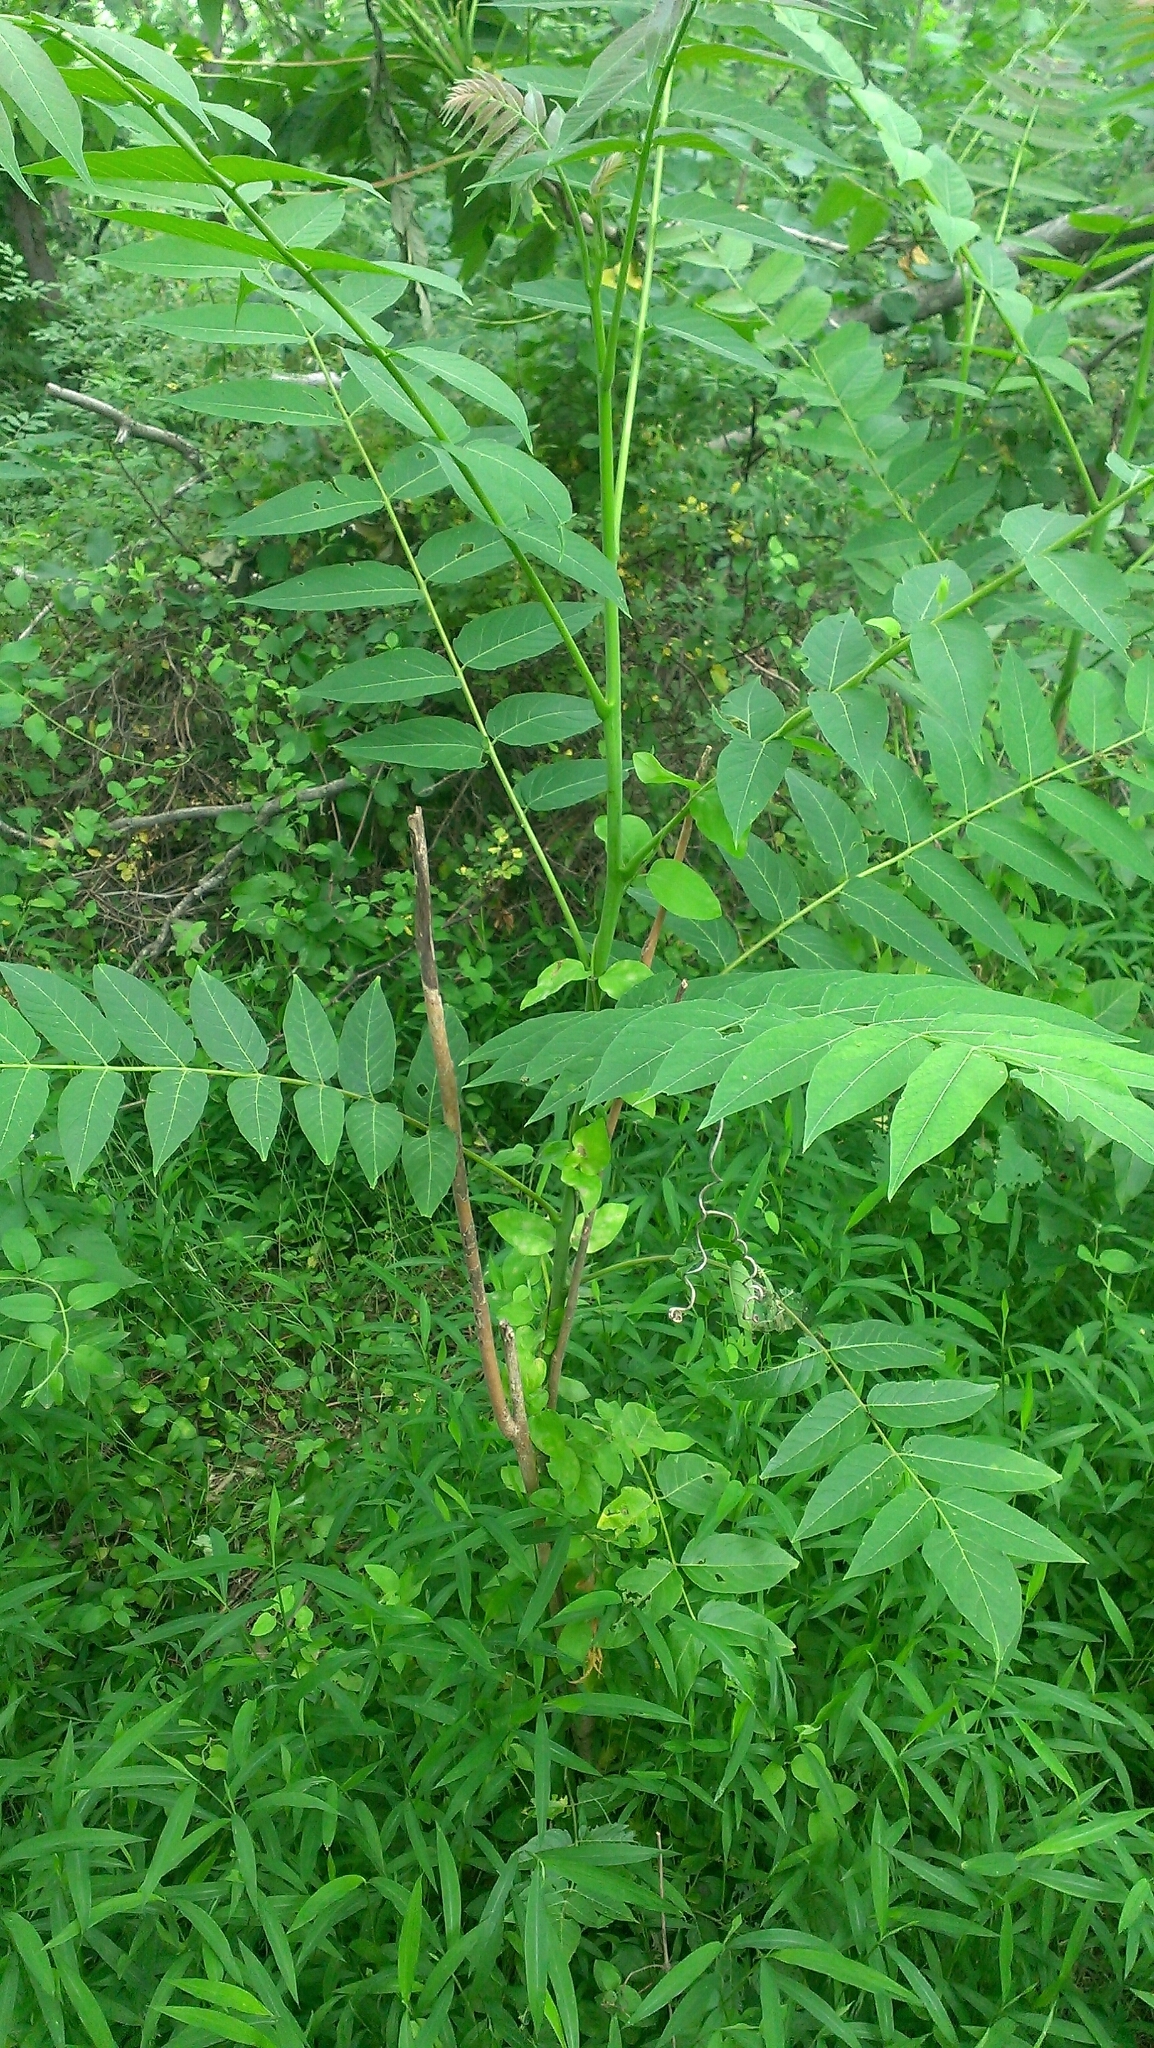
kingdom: Plantae
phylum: Tracheophyta
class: Magnoliopsida
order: Sapindales
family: Simaroubaceae
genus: Ailanthus
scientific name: Ailanthus altissima
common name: Tree-of-heaven
